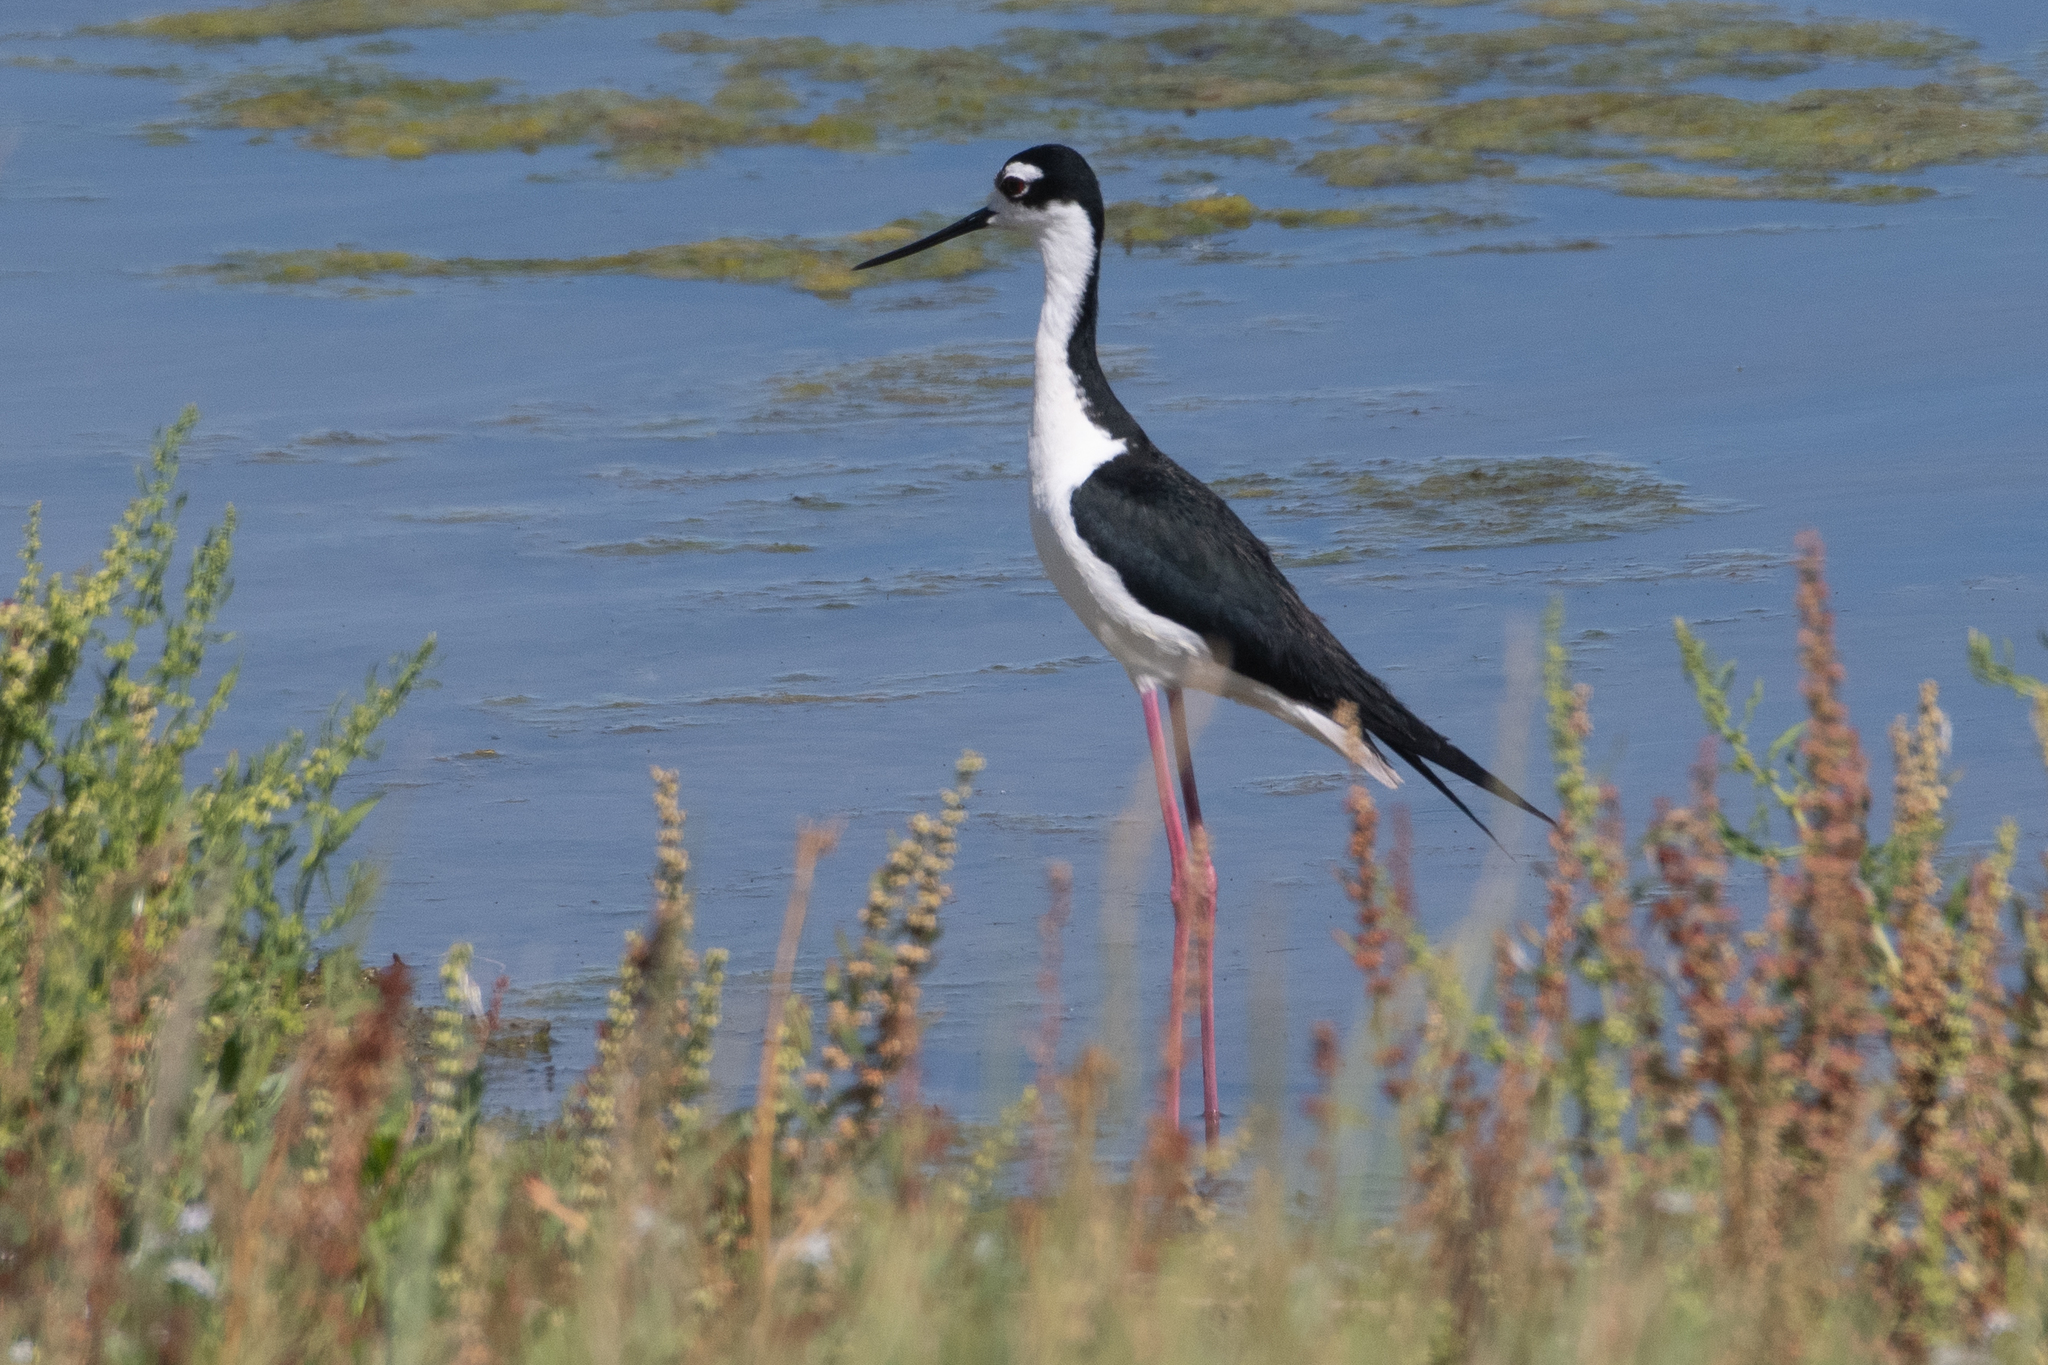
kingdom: Animalia
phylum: Chordata
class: Aves
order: Charadriiformes
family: Recurvirostridae
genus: Himantopus
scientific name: Himantopus mexicanus
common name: Black-necked stilt
